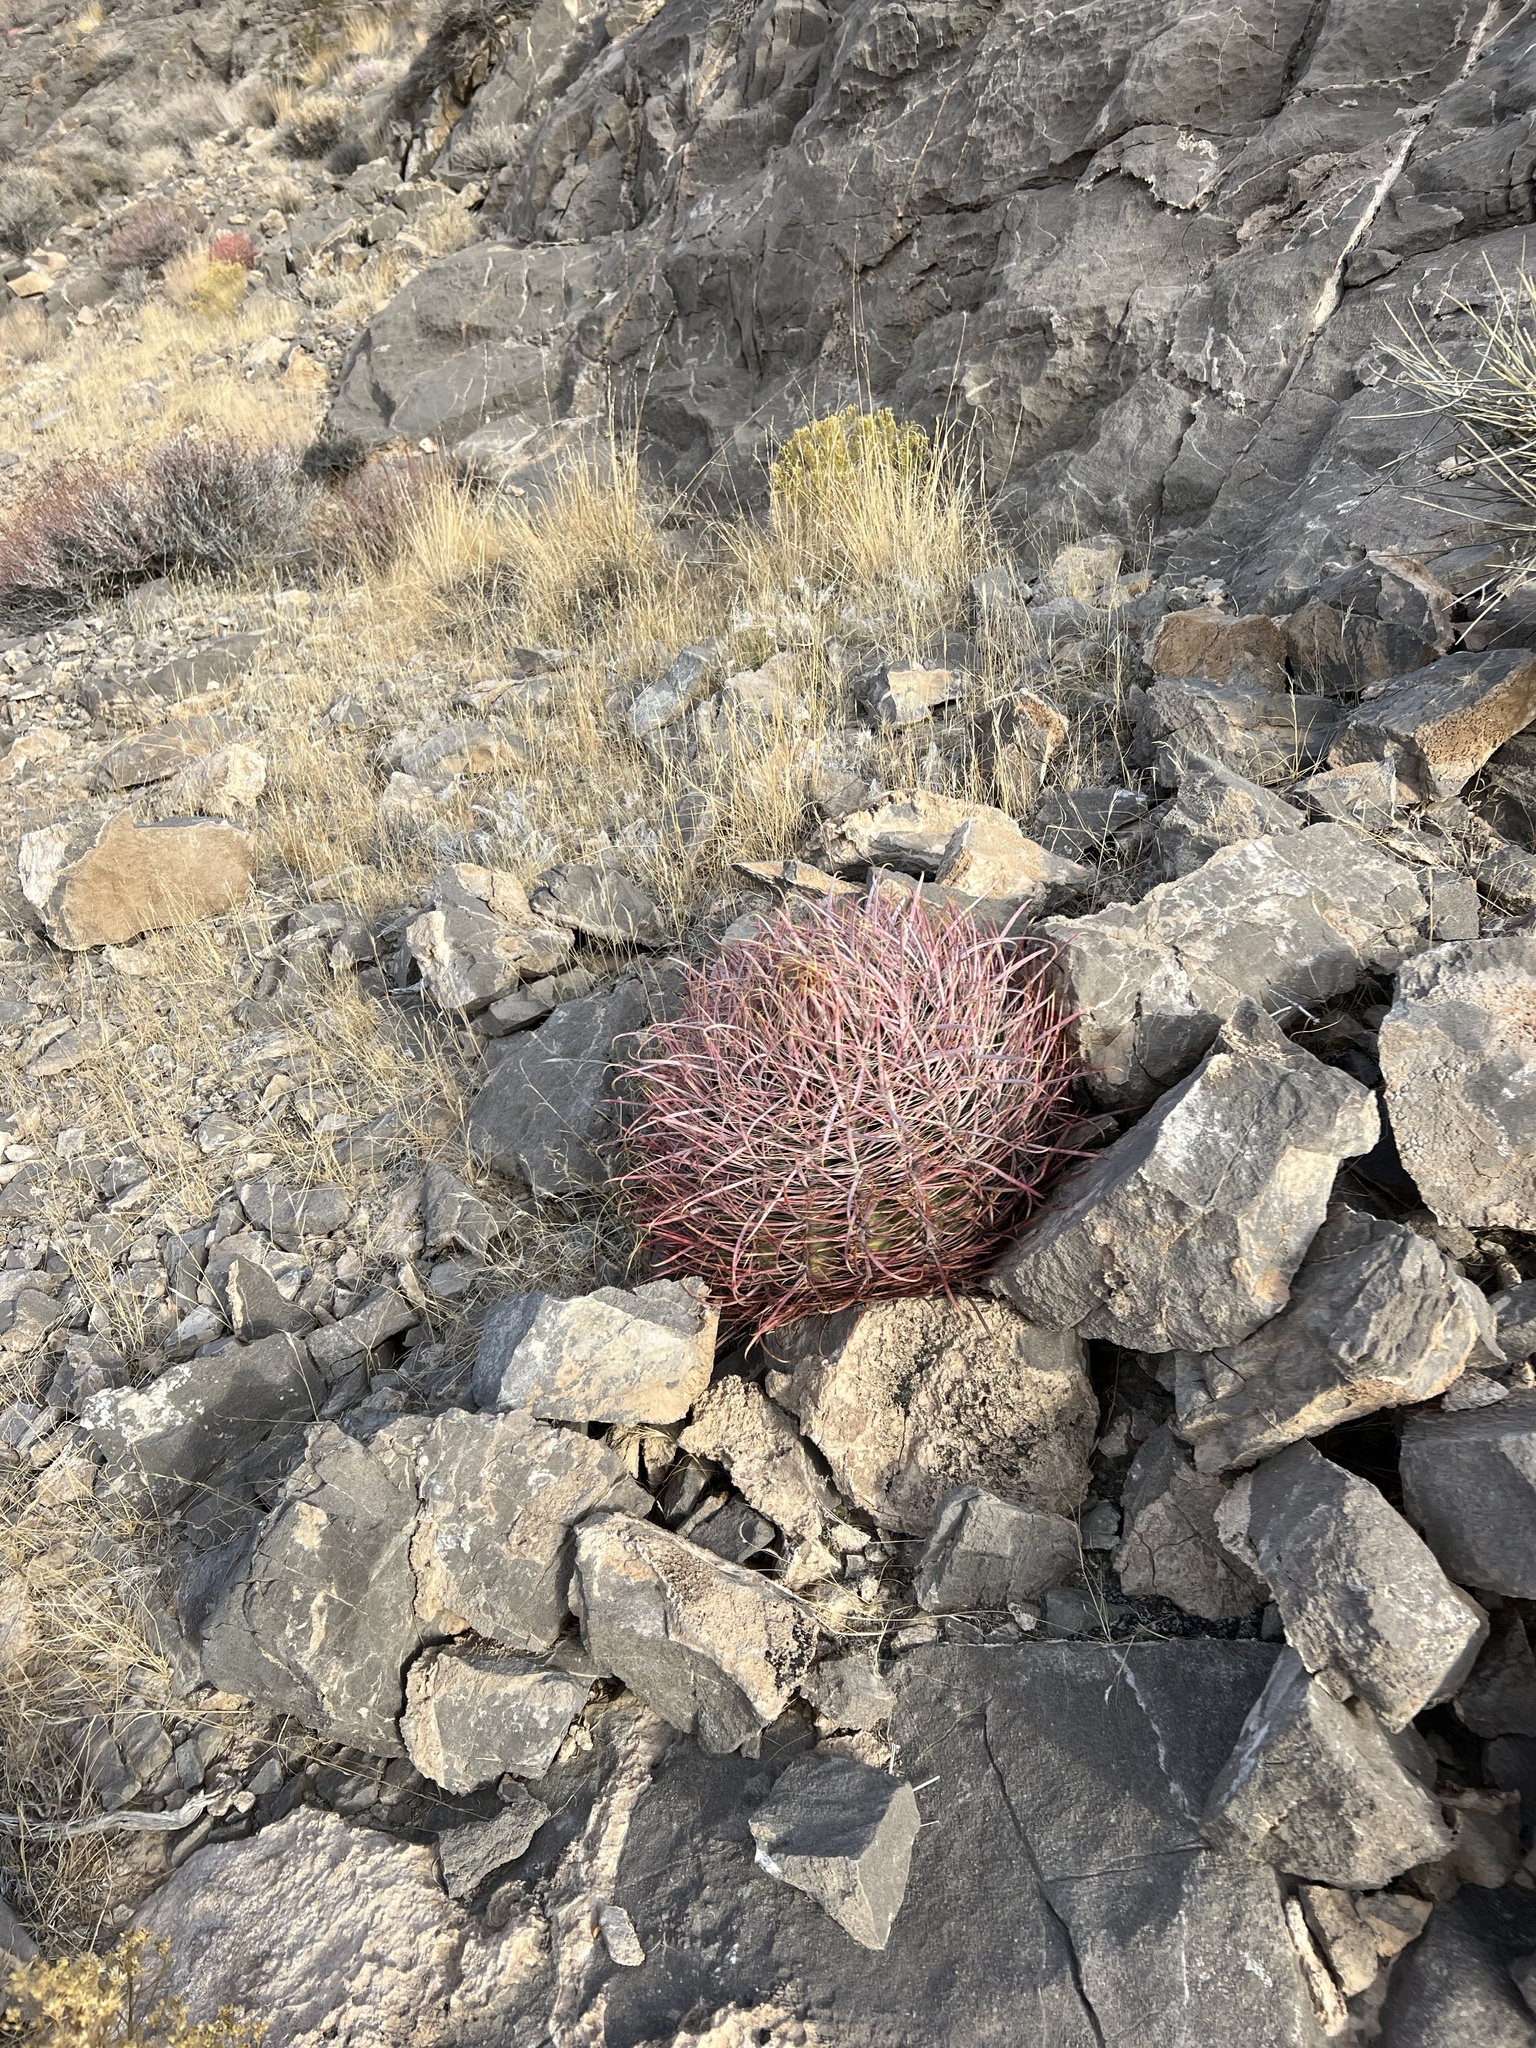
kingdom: Plantae
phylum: Tracheophyta
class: Magnoliopsida
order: Caryophyllales
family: Cactaceae
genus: Ferocactus
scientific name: Ferocactus cylindraceus
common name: California barrel cactus
